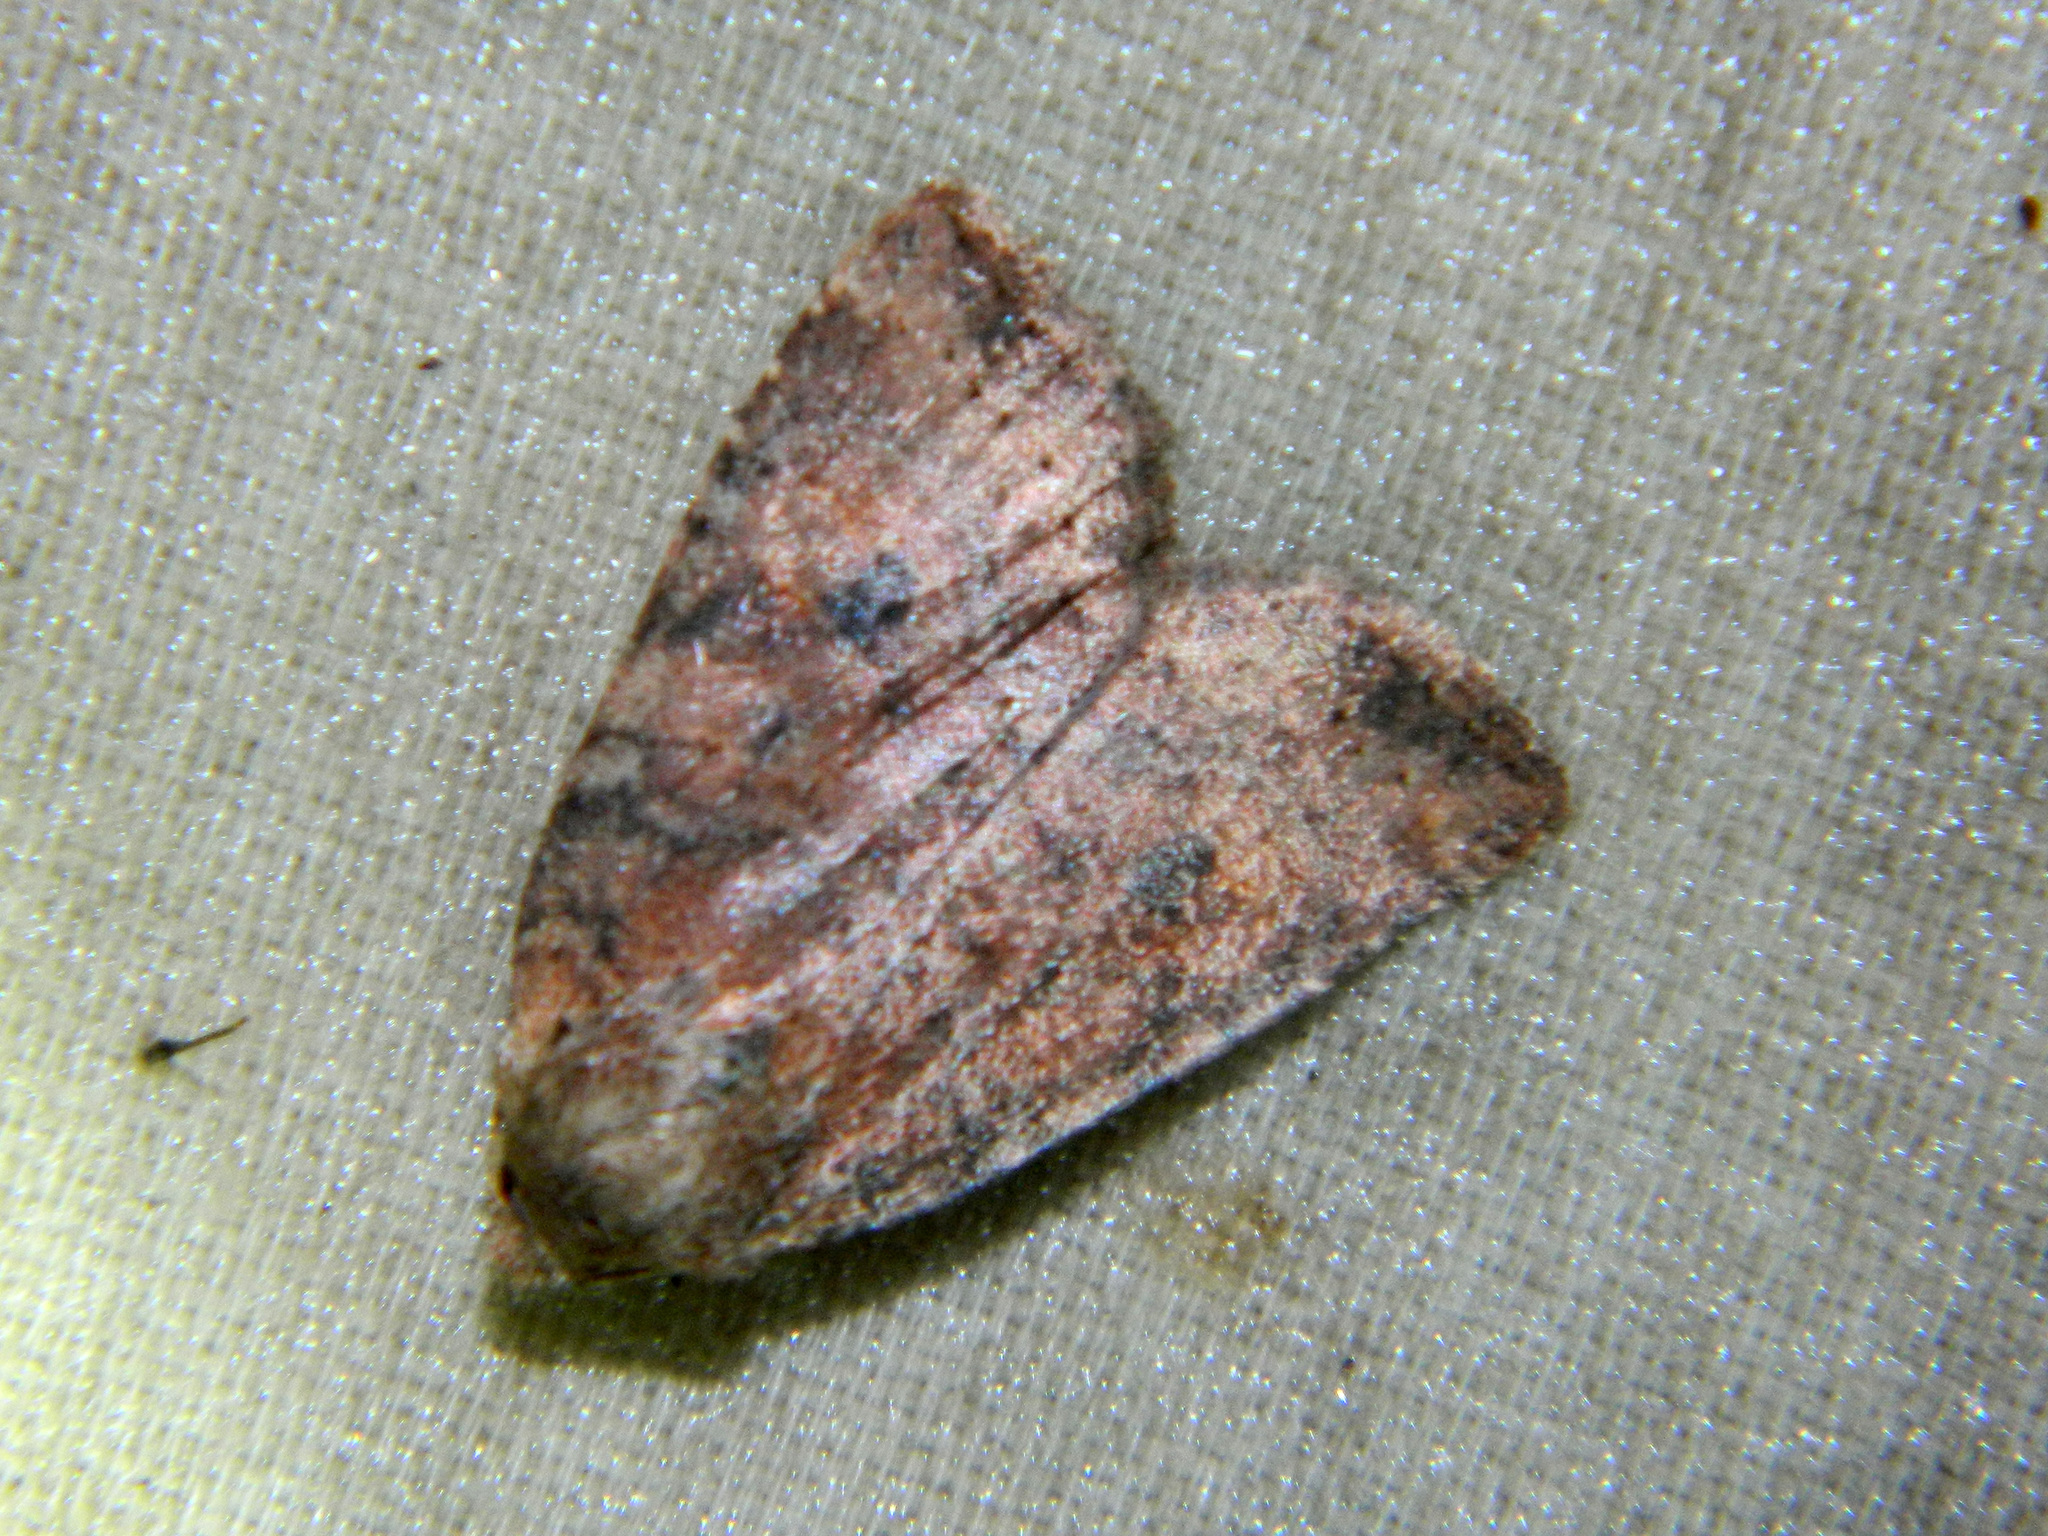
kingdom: Animalia
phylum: Arthropoda
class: Insecta
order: Lepidoptera
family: Noctuidae
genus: Anathix
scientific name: Anathix puta
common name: Puta sallow
